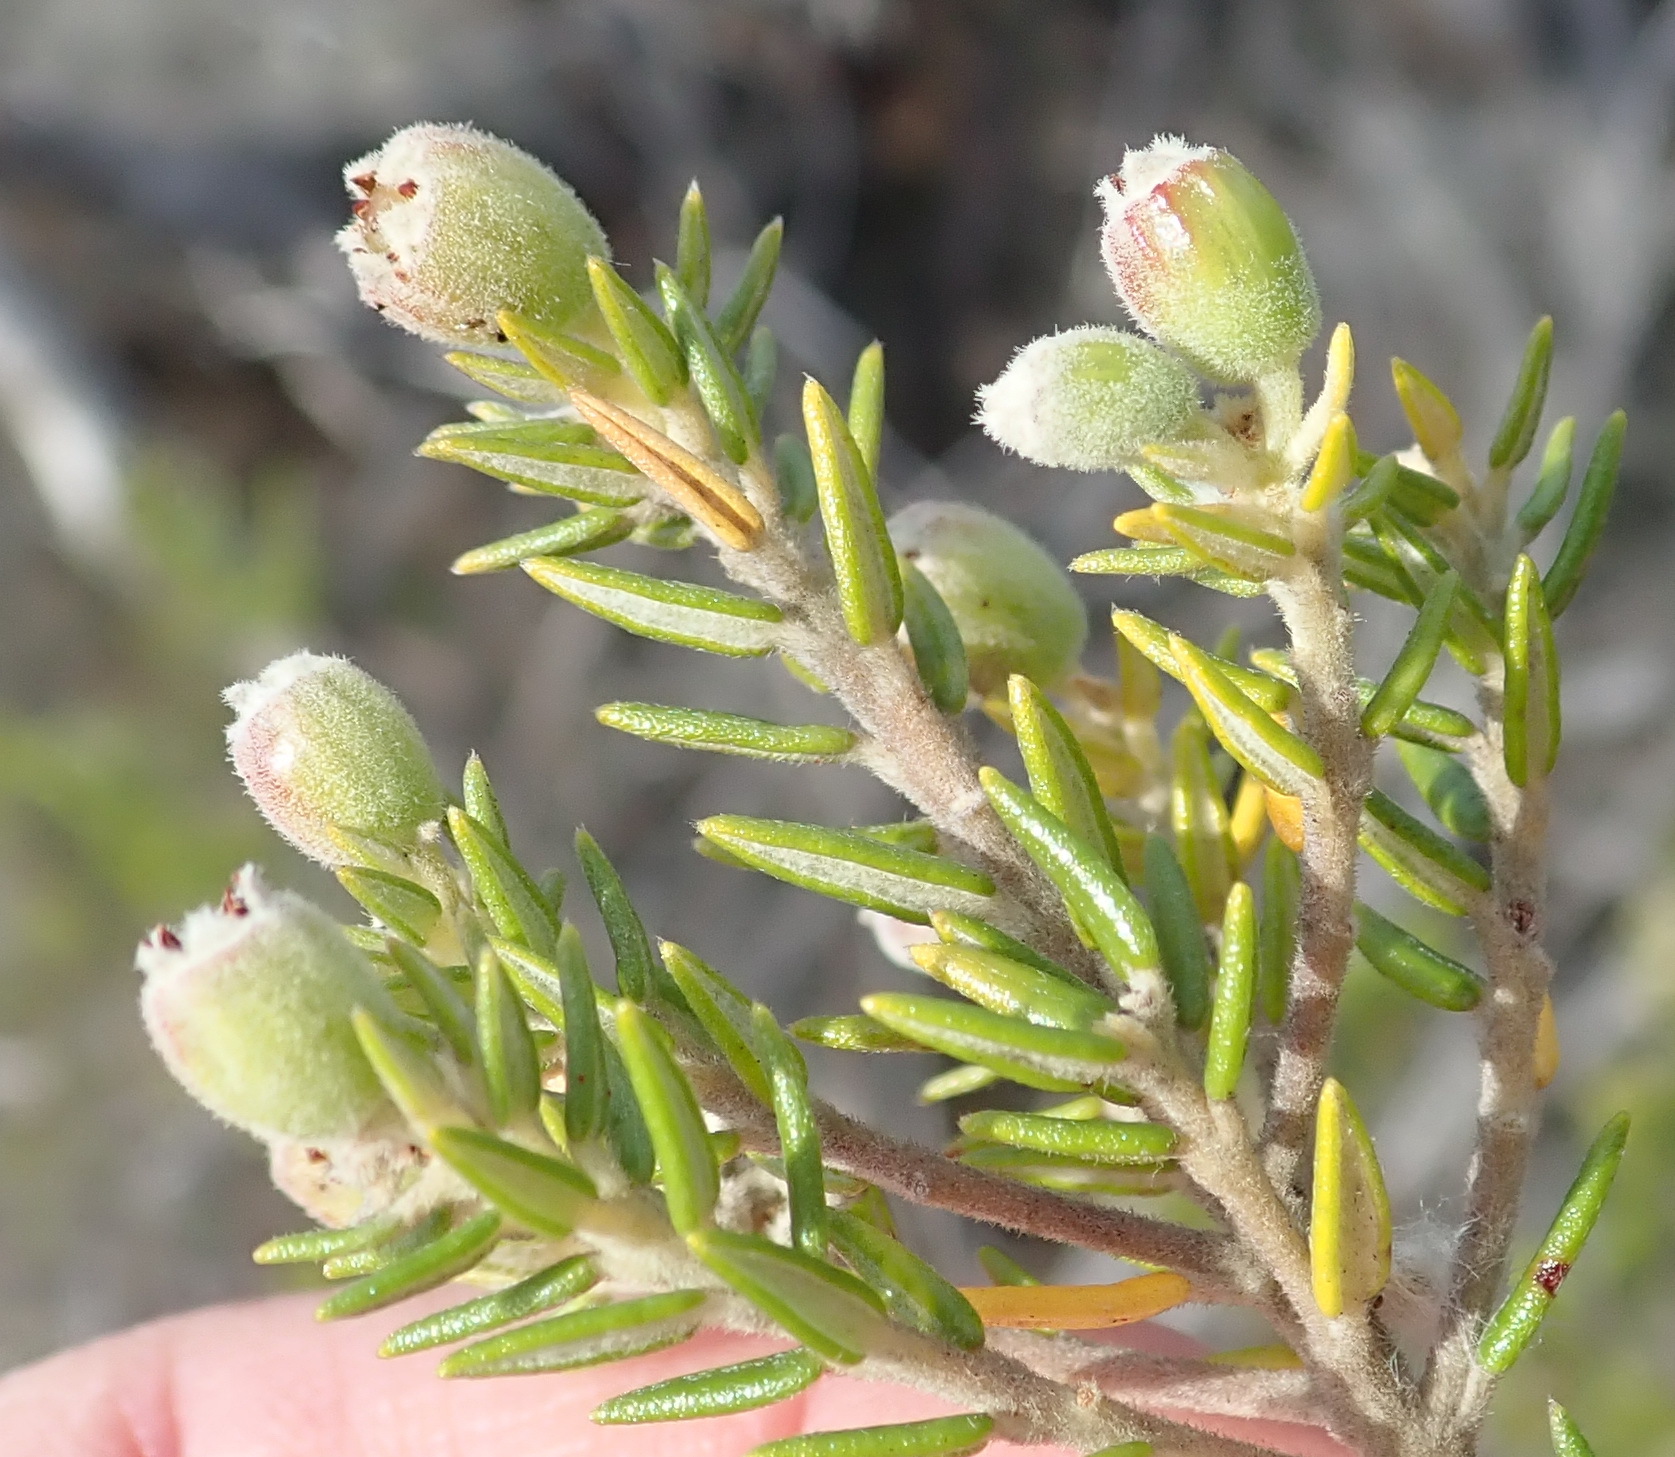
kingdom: Plantae
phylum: Tracheophyta
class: Magnoliopsida
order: Rosales
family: Rhamnaceae
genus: Phylica
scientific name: Phylica axillaris
